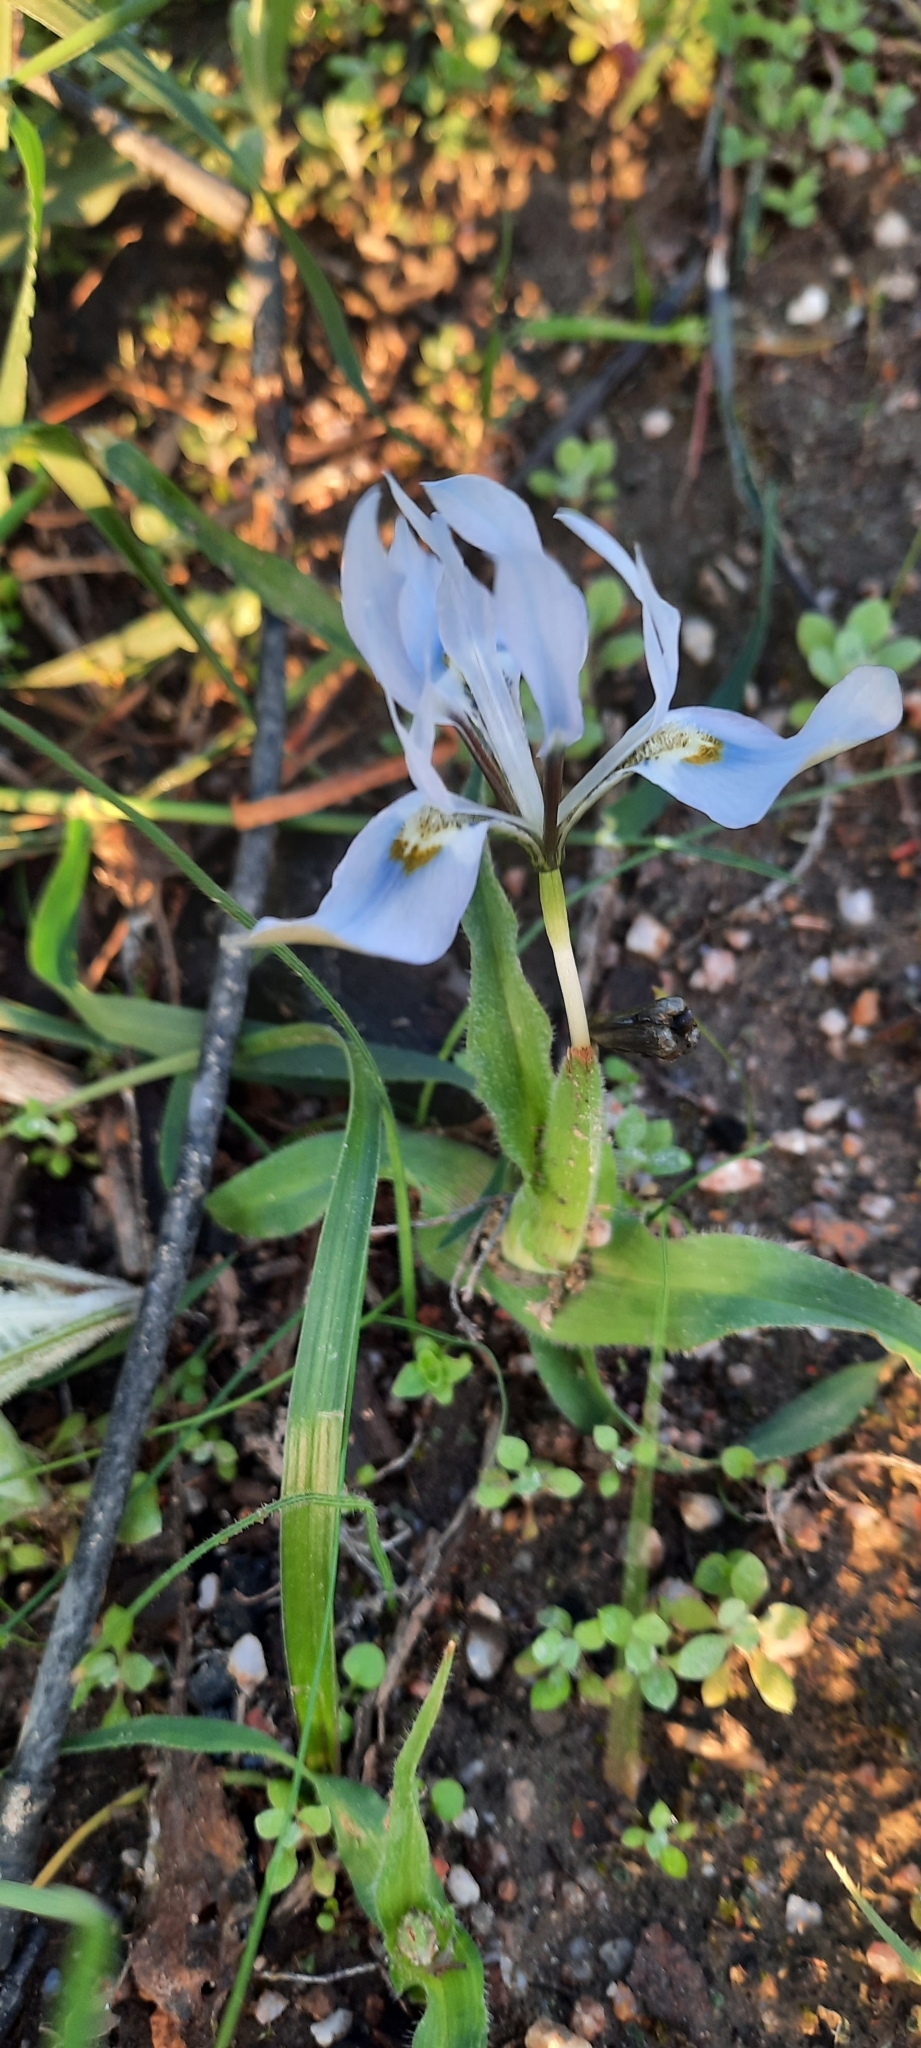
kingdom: Plantae
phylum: Tracheophyta
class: Liliopsida
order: Asparagales
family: Iridaceae
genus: Moraea
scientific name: Moraea ciliata
